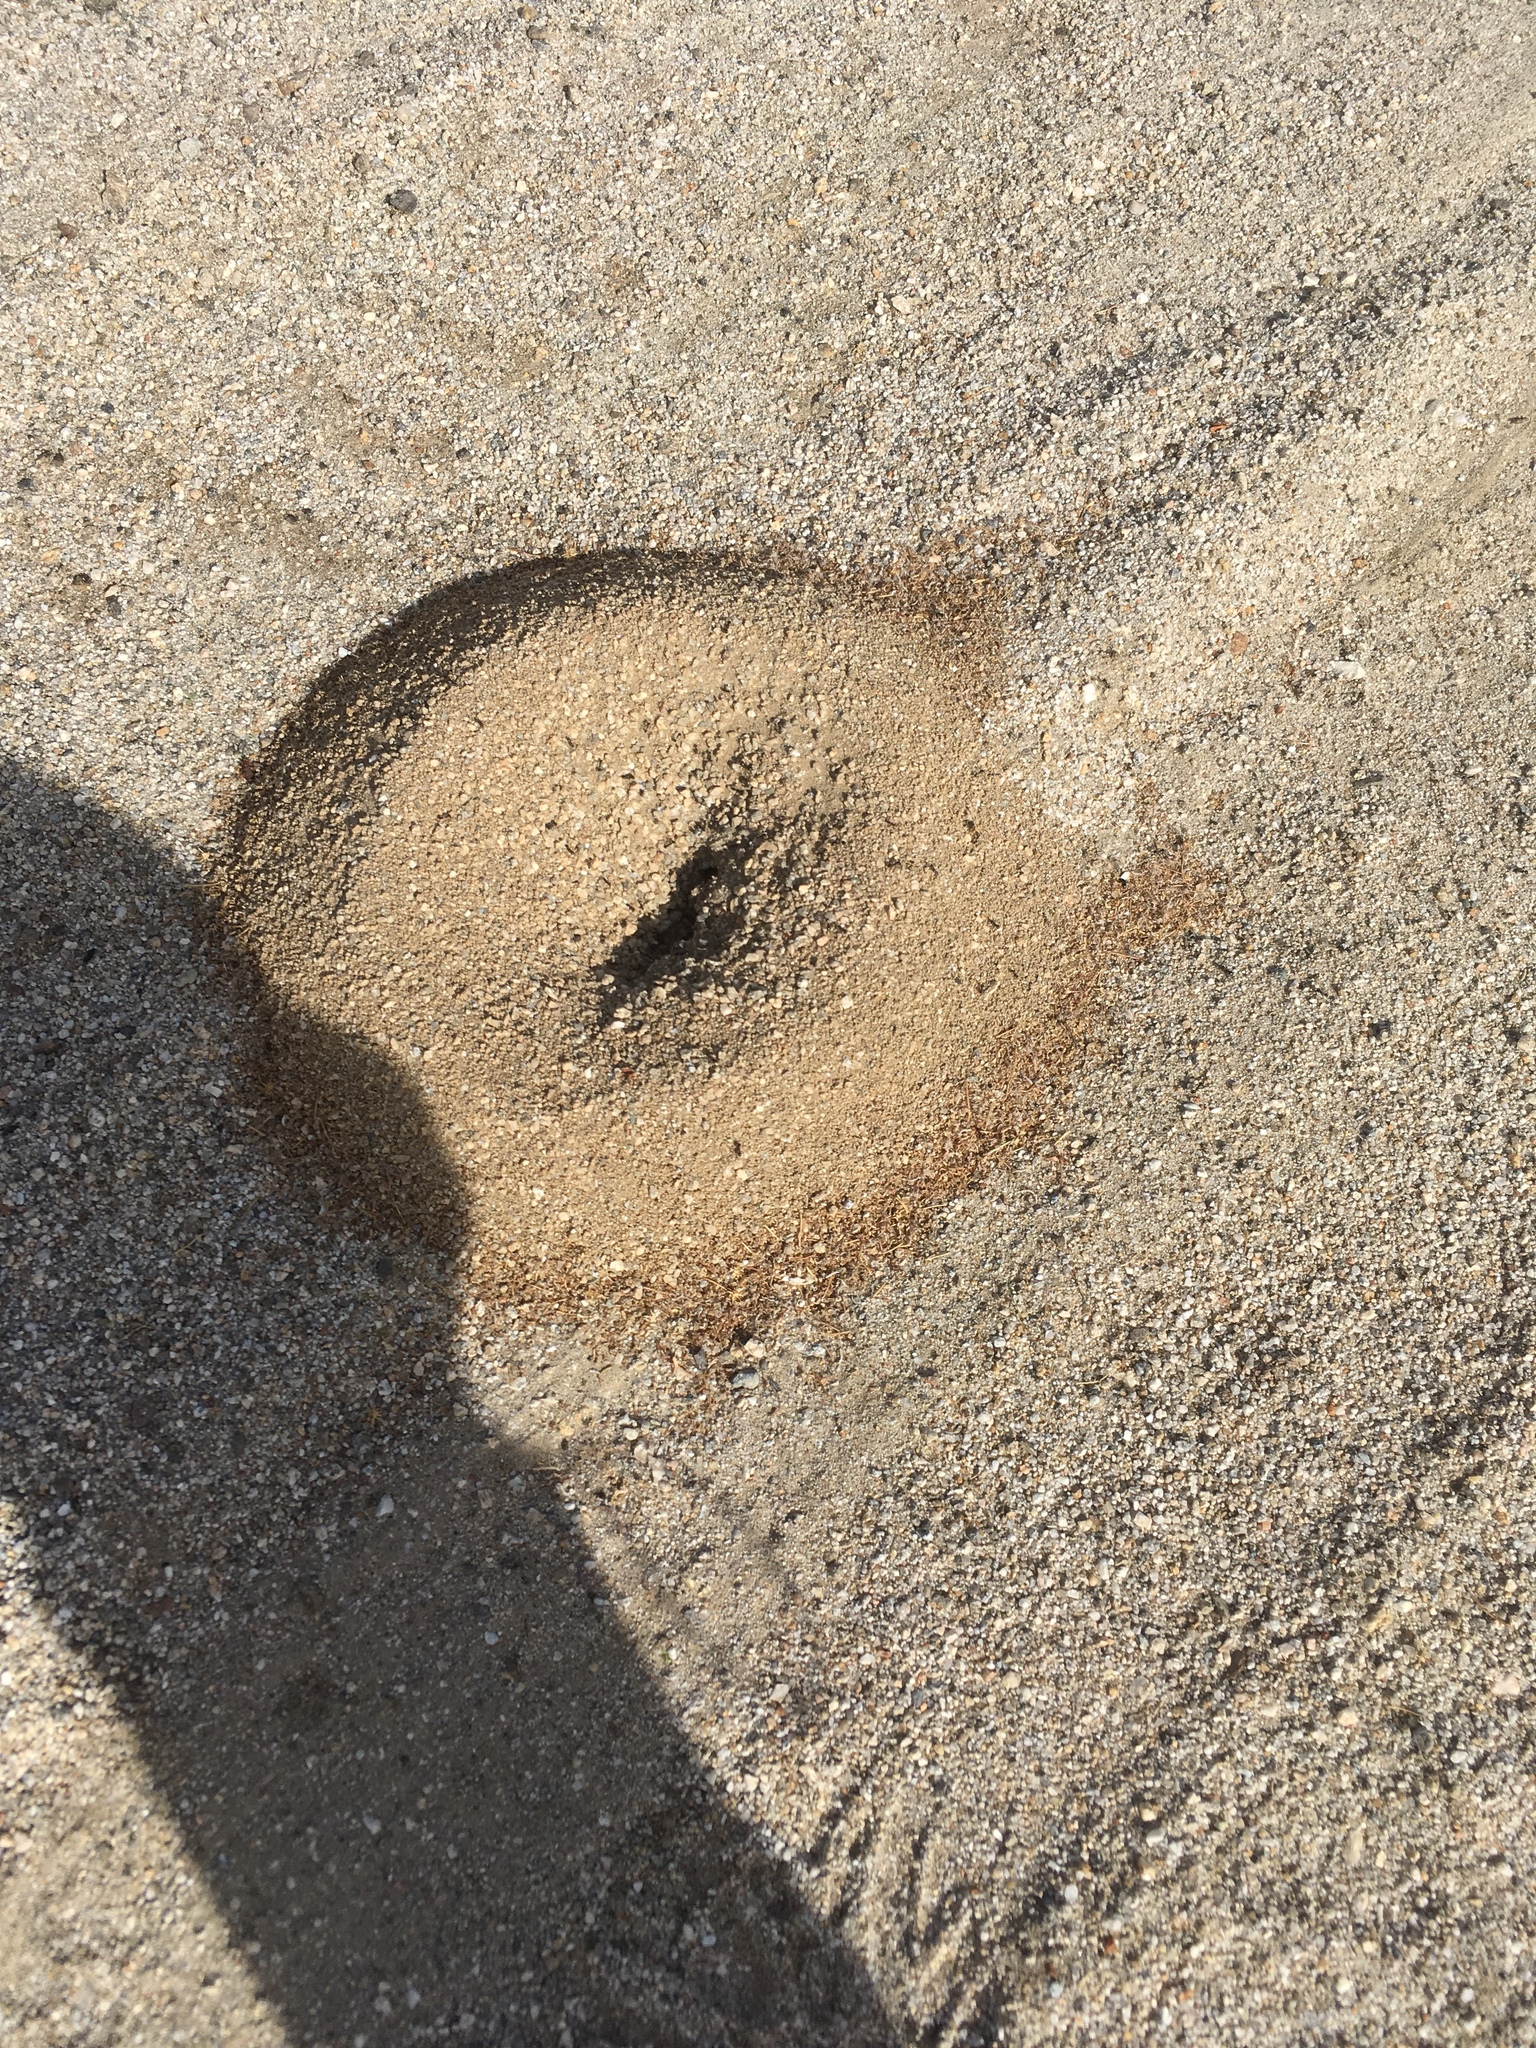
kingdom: Animalia
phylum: Arthropoda
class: Insecta
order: Hymenoptera
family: Formicidae
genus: Messor
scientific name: Messor pergandei
